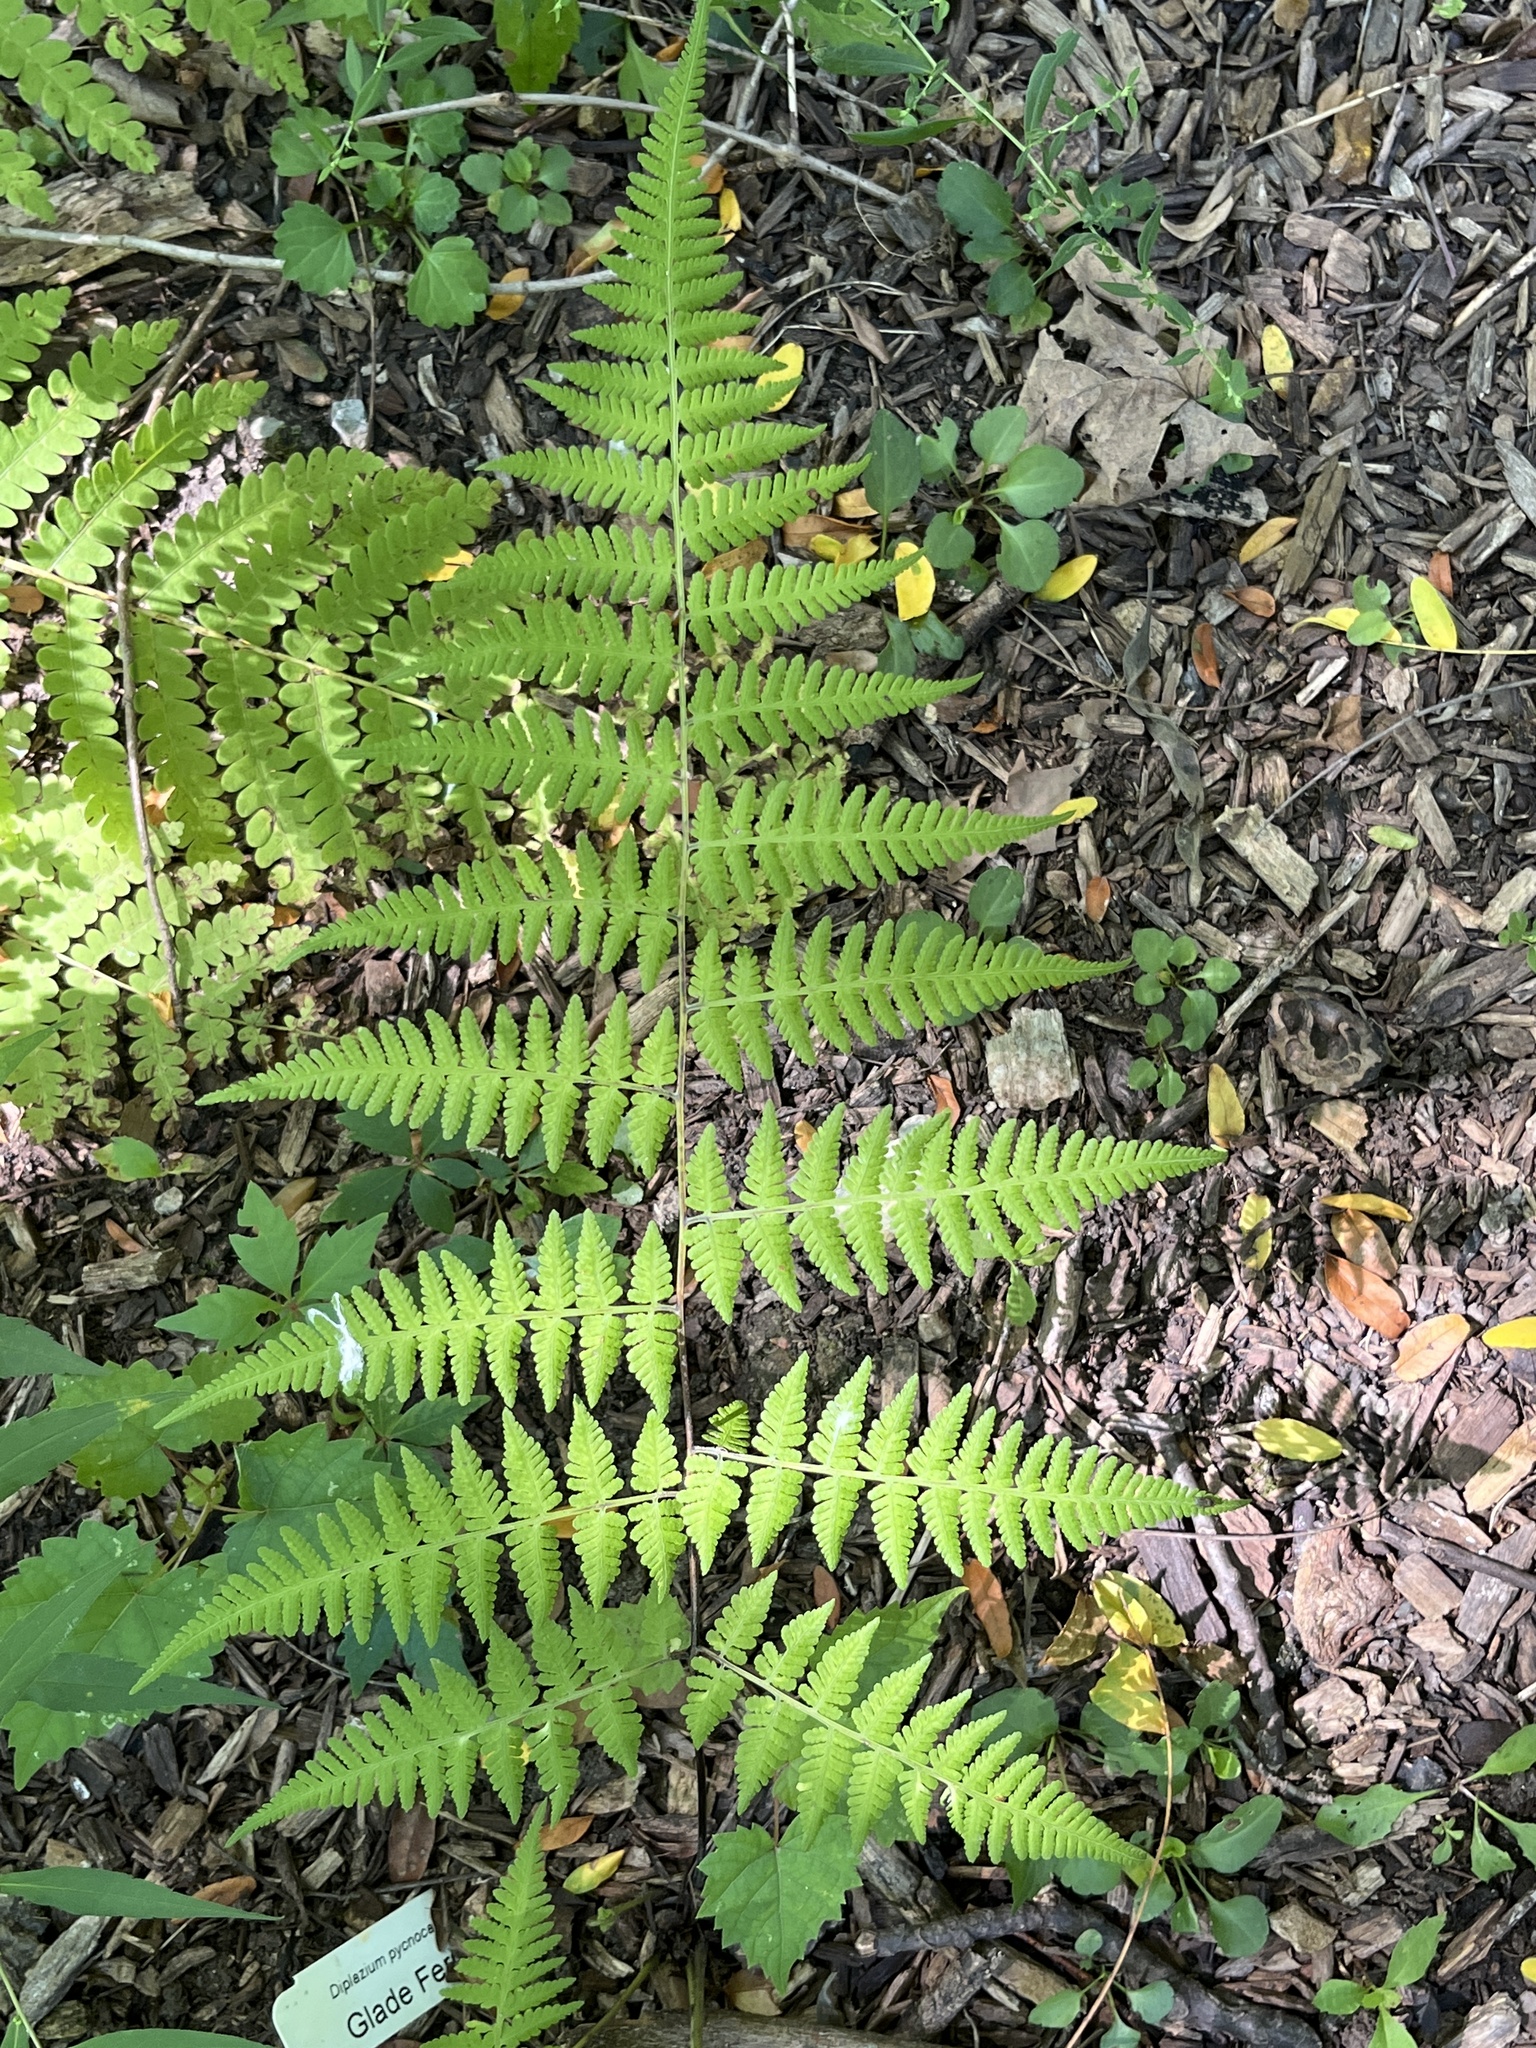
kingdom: Plantae
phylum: Tracheophyta
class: Polypodiopsida
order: Polypodiales
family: Thelypteridaceae
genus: Macrothelypteris
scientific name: Macrothelypteris torresiana
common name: Swordfern
